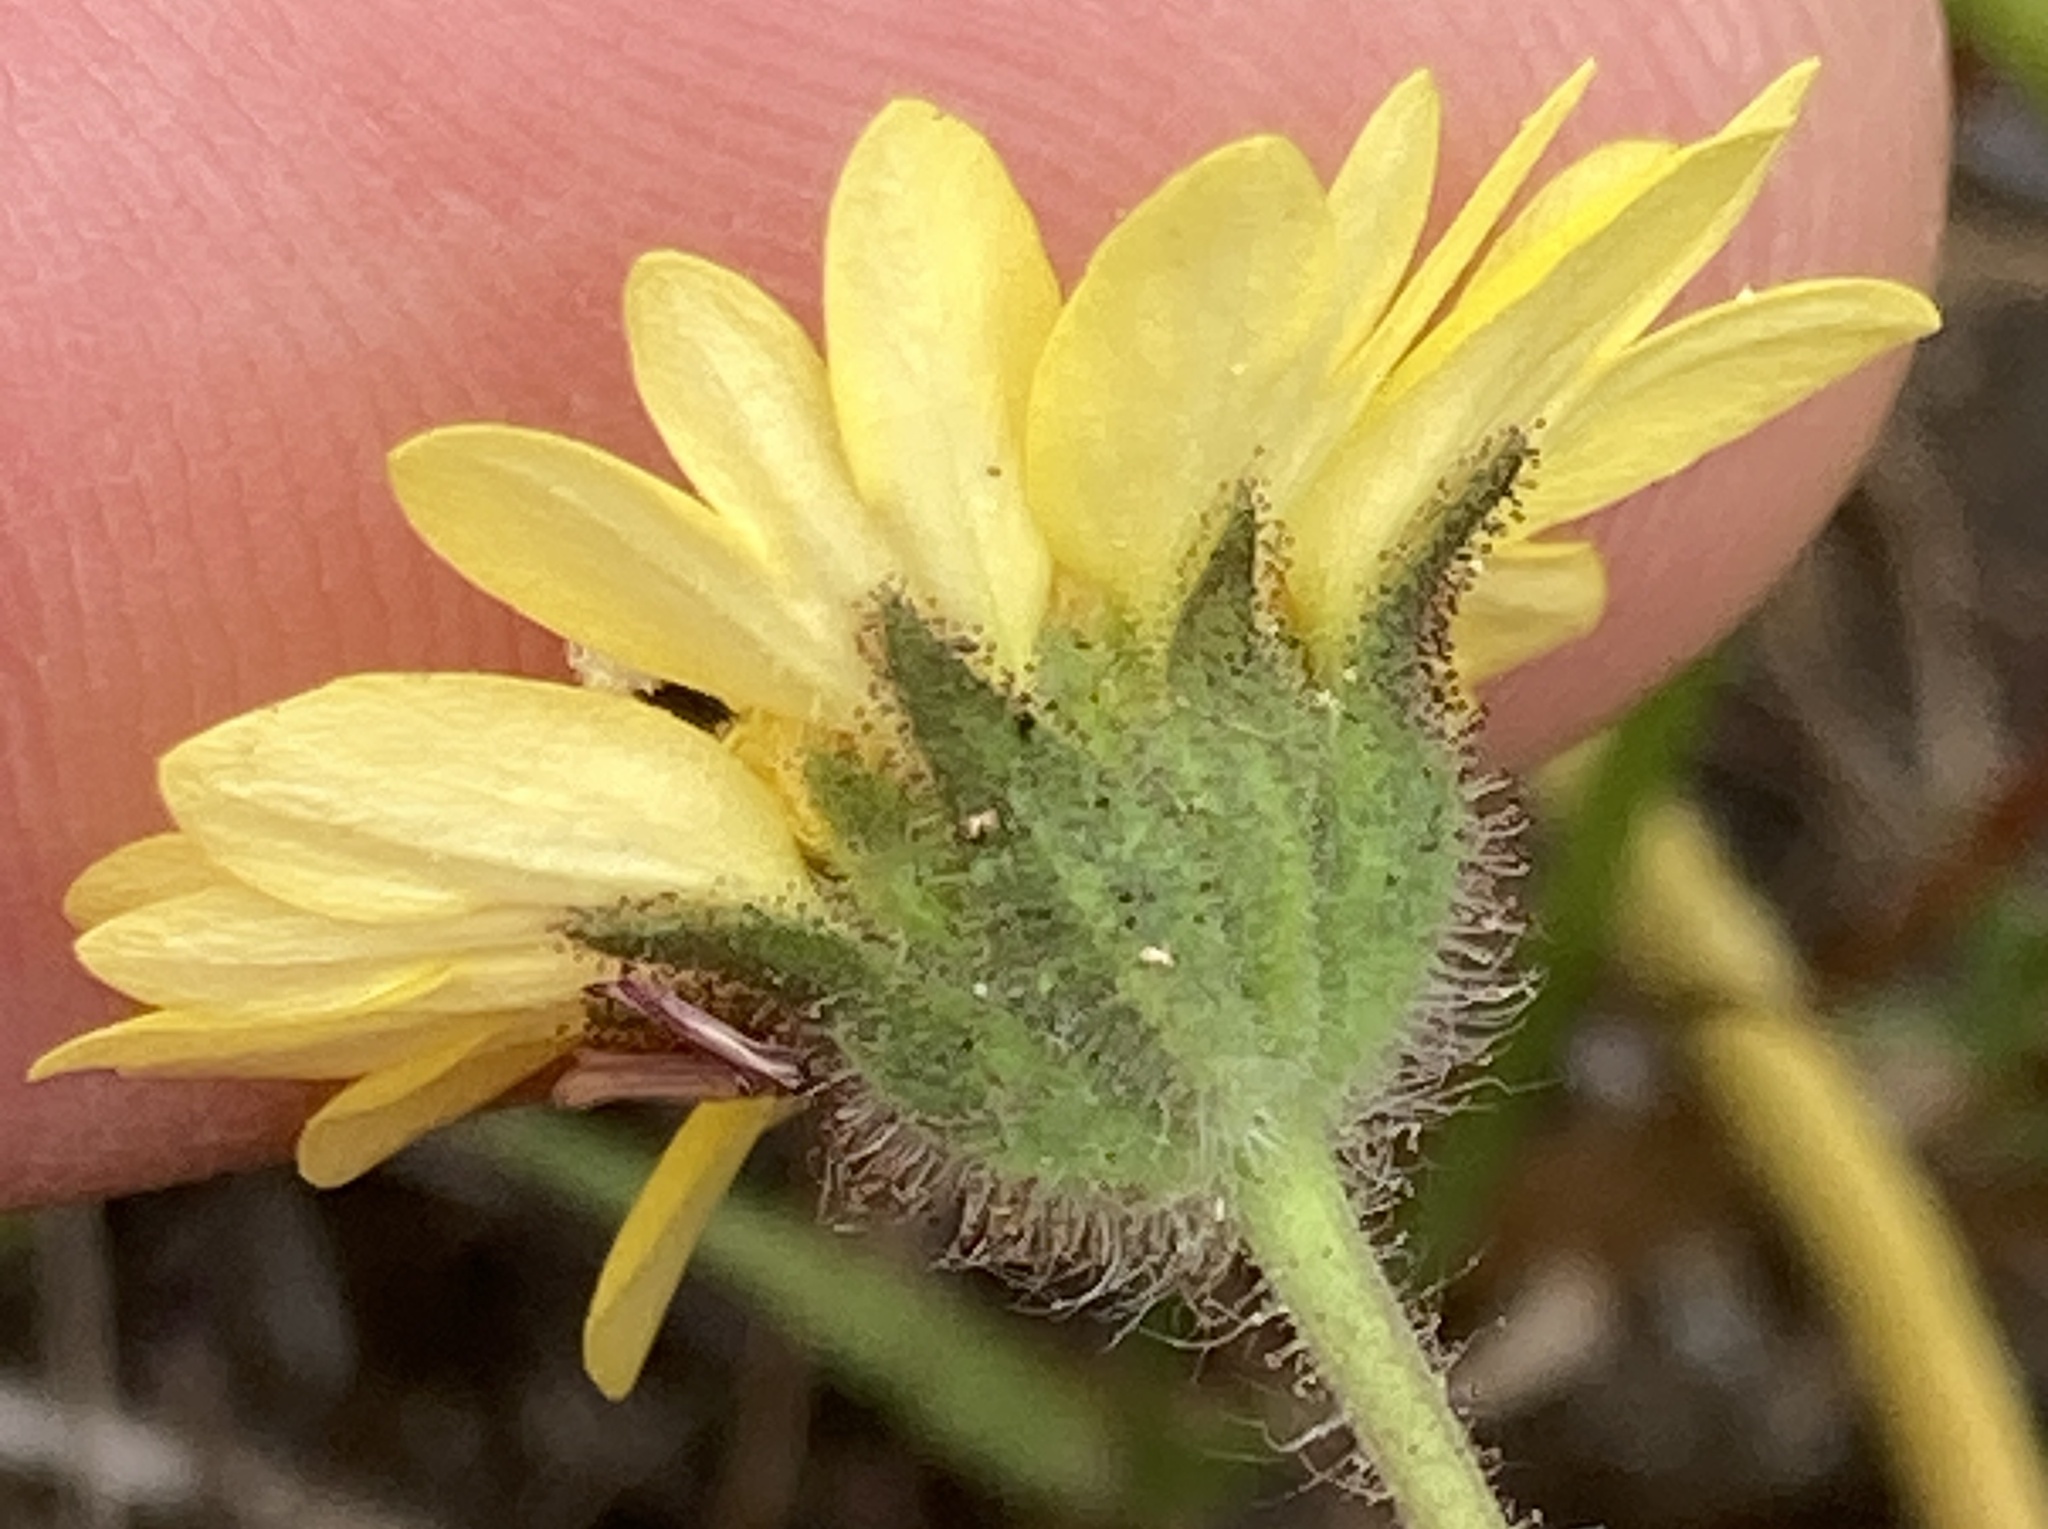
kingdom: Plantae
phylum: Tracheophyta
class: Magnoliopsida
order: Asterales
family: Asteraceae
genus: Hemizonia
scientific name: Hemizonia congesta
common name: Hayfield tarweed
